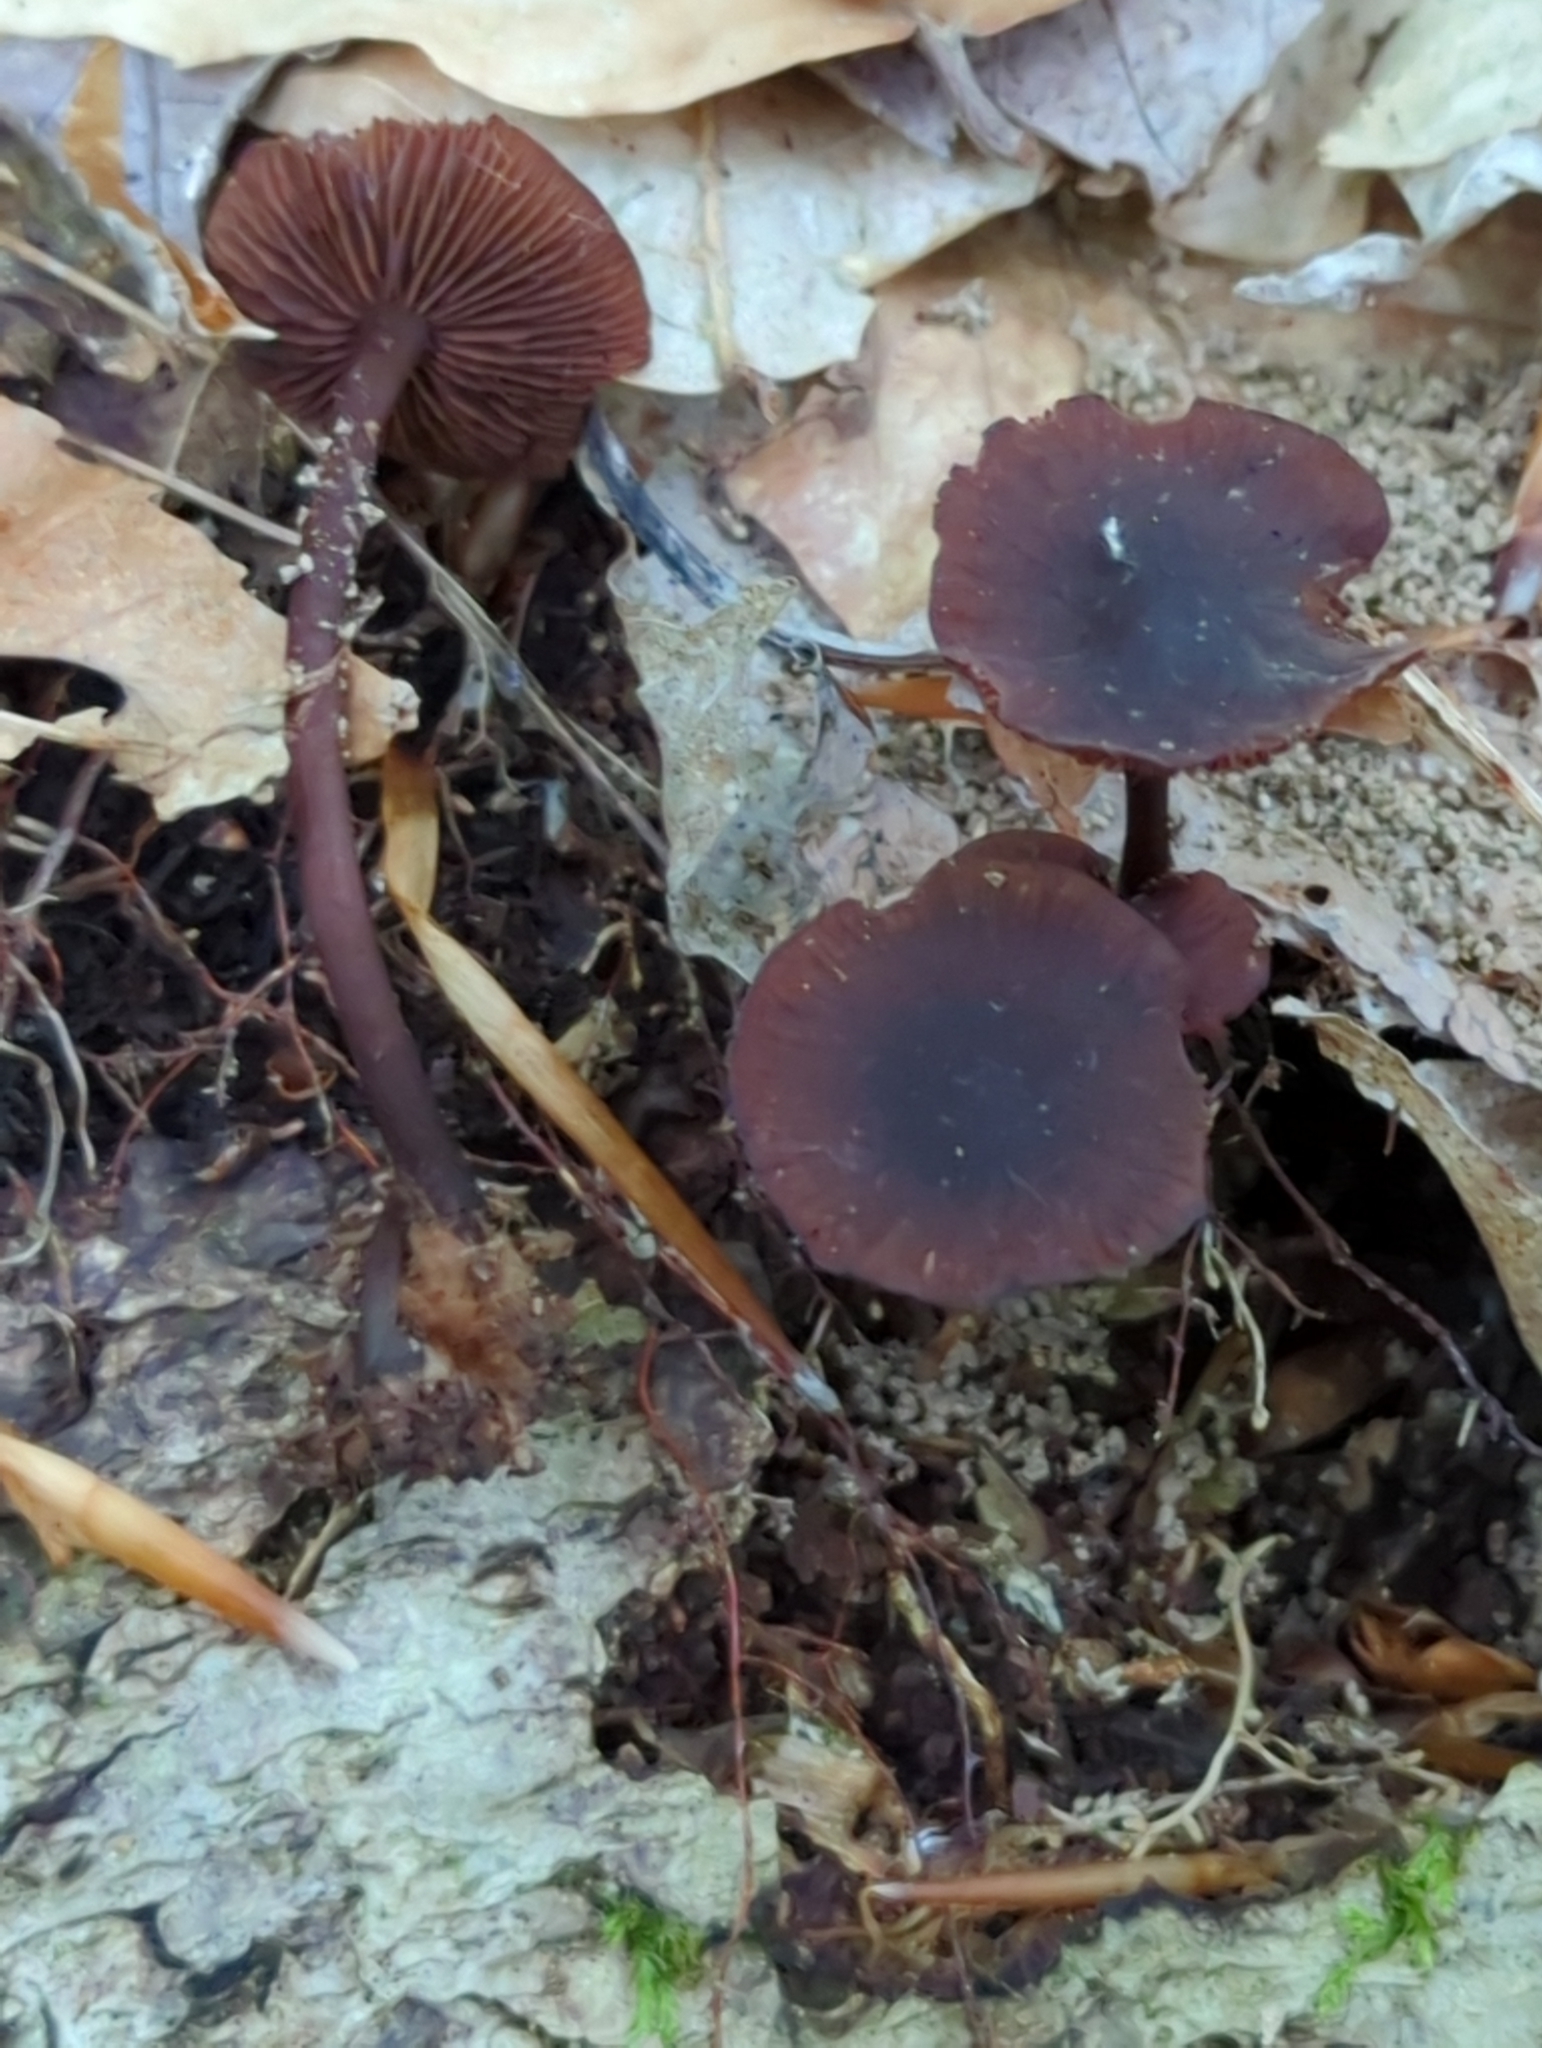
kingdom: Fungi
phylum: Basidiomycota
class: Agaricomycetes
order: Agaricales
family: Omphalotaceae
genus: Gymnopus
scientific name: Gymnopus alkalivirens
